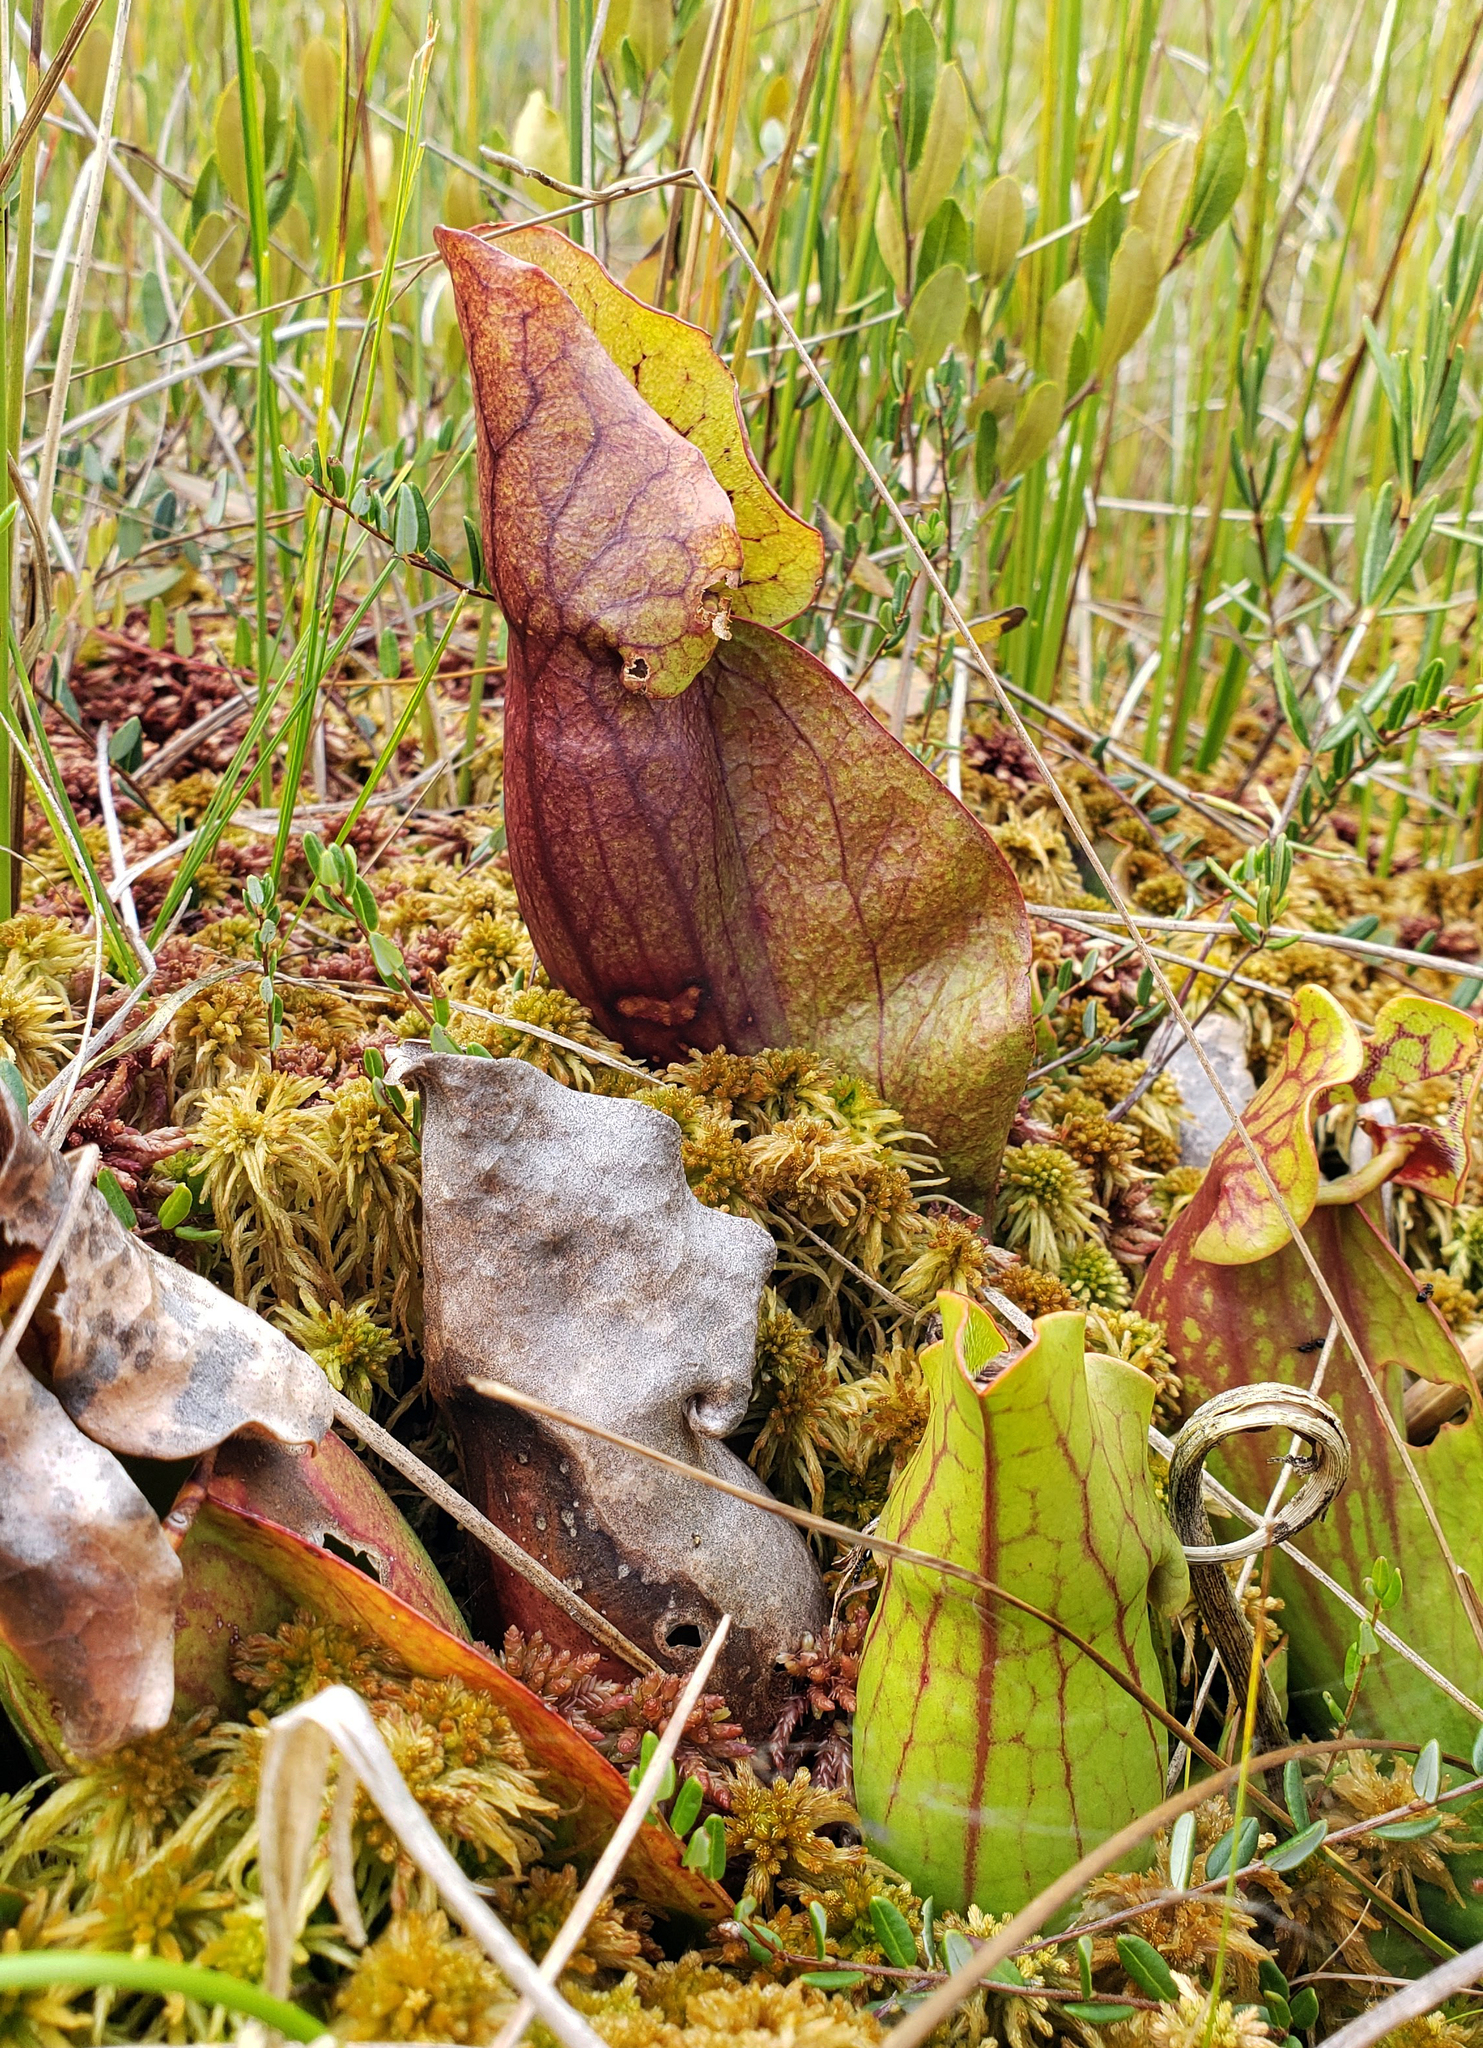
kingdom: Plantae
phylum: Tracheophyta
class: Magnoliopsida
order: Ericales
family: Sarraceniaceae
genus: Sarracenia
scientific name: Sarracenia purpurea
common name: Pitcherplant
